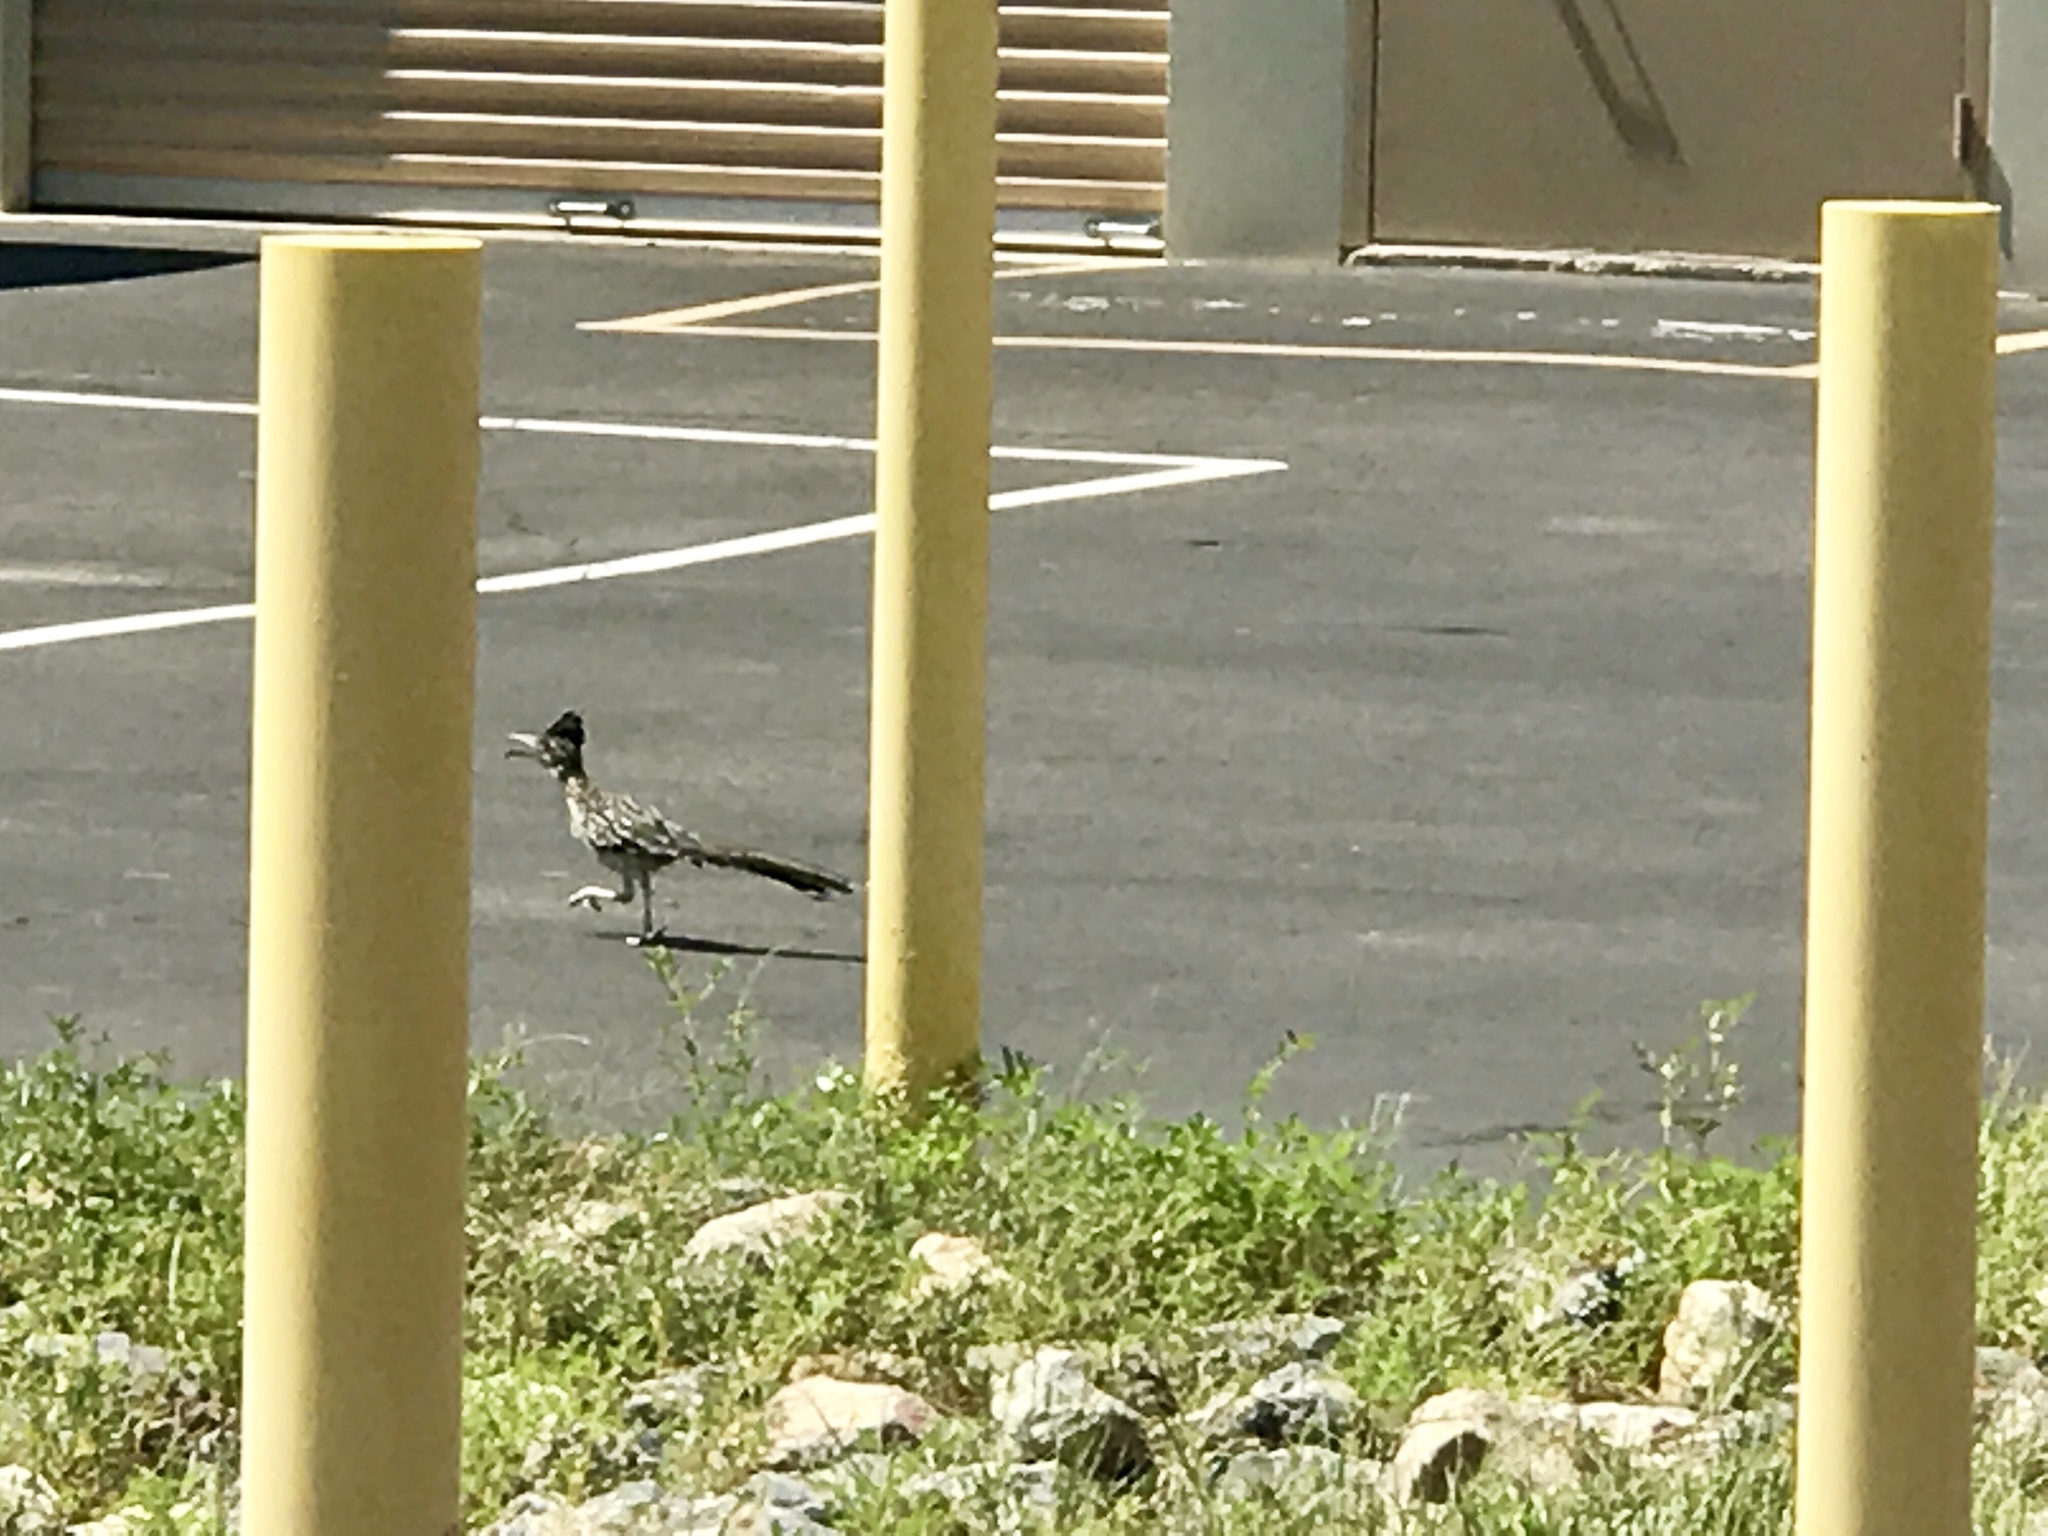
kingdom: Animalia
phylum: Chordata
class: Aves
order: Cuculiformes
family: Cuculidae
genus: Geococcyx
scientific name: Geococcyx californianus
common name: Greater roadrunner
